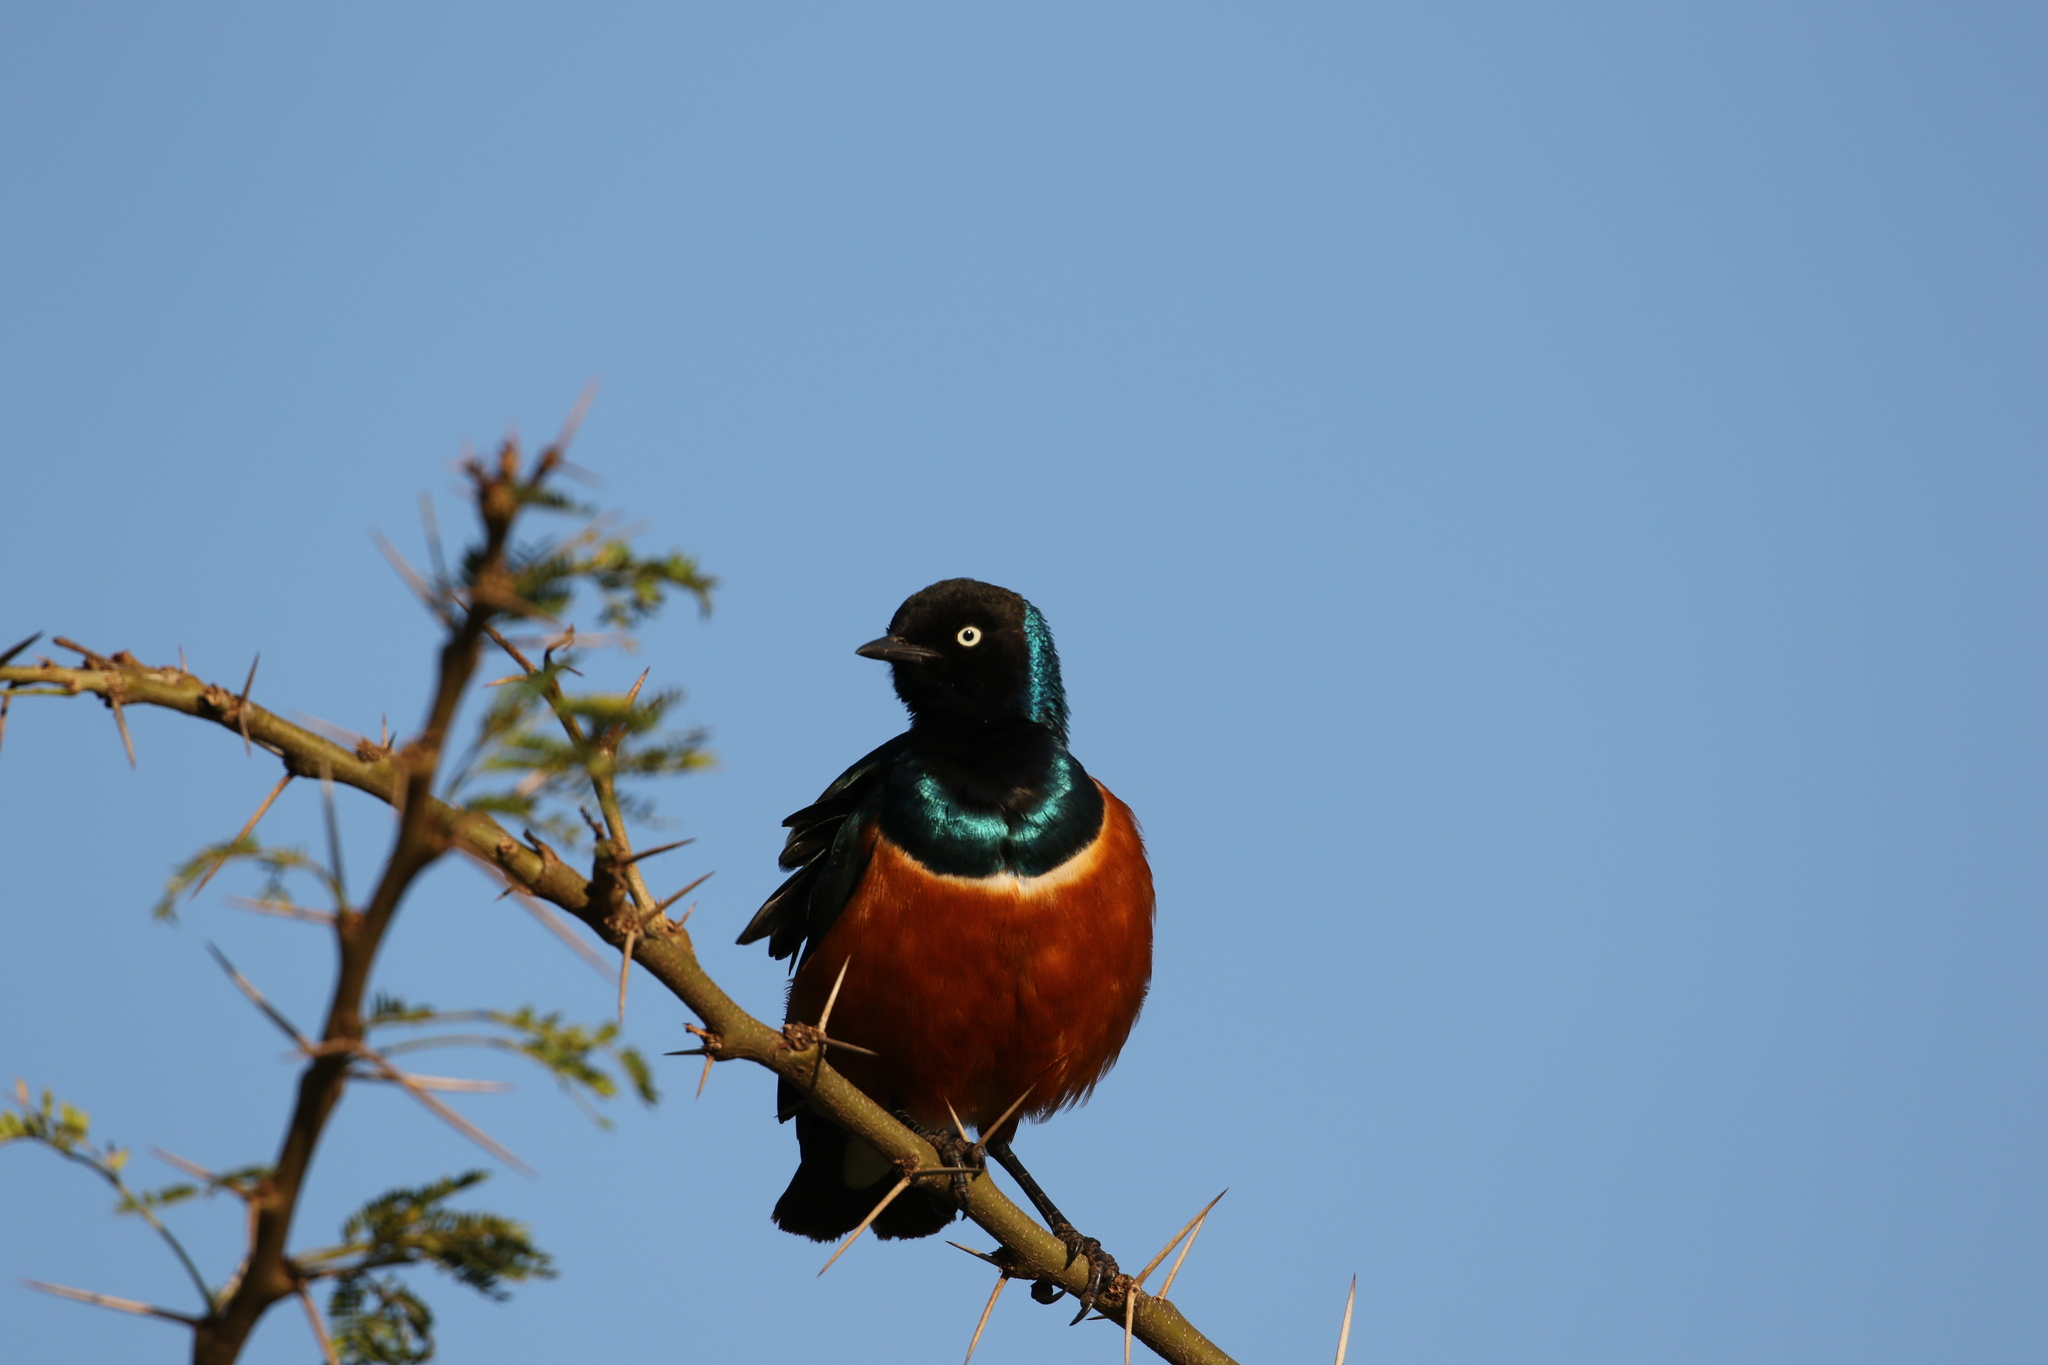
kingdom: Animalia
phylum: Chordata
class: Aves
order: Passeriformes
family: Sturnidae
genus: Lamprotornis
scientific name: Lamprotornis superbus
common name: Superb starling
